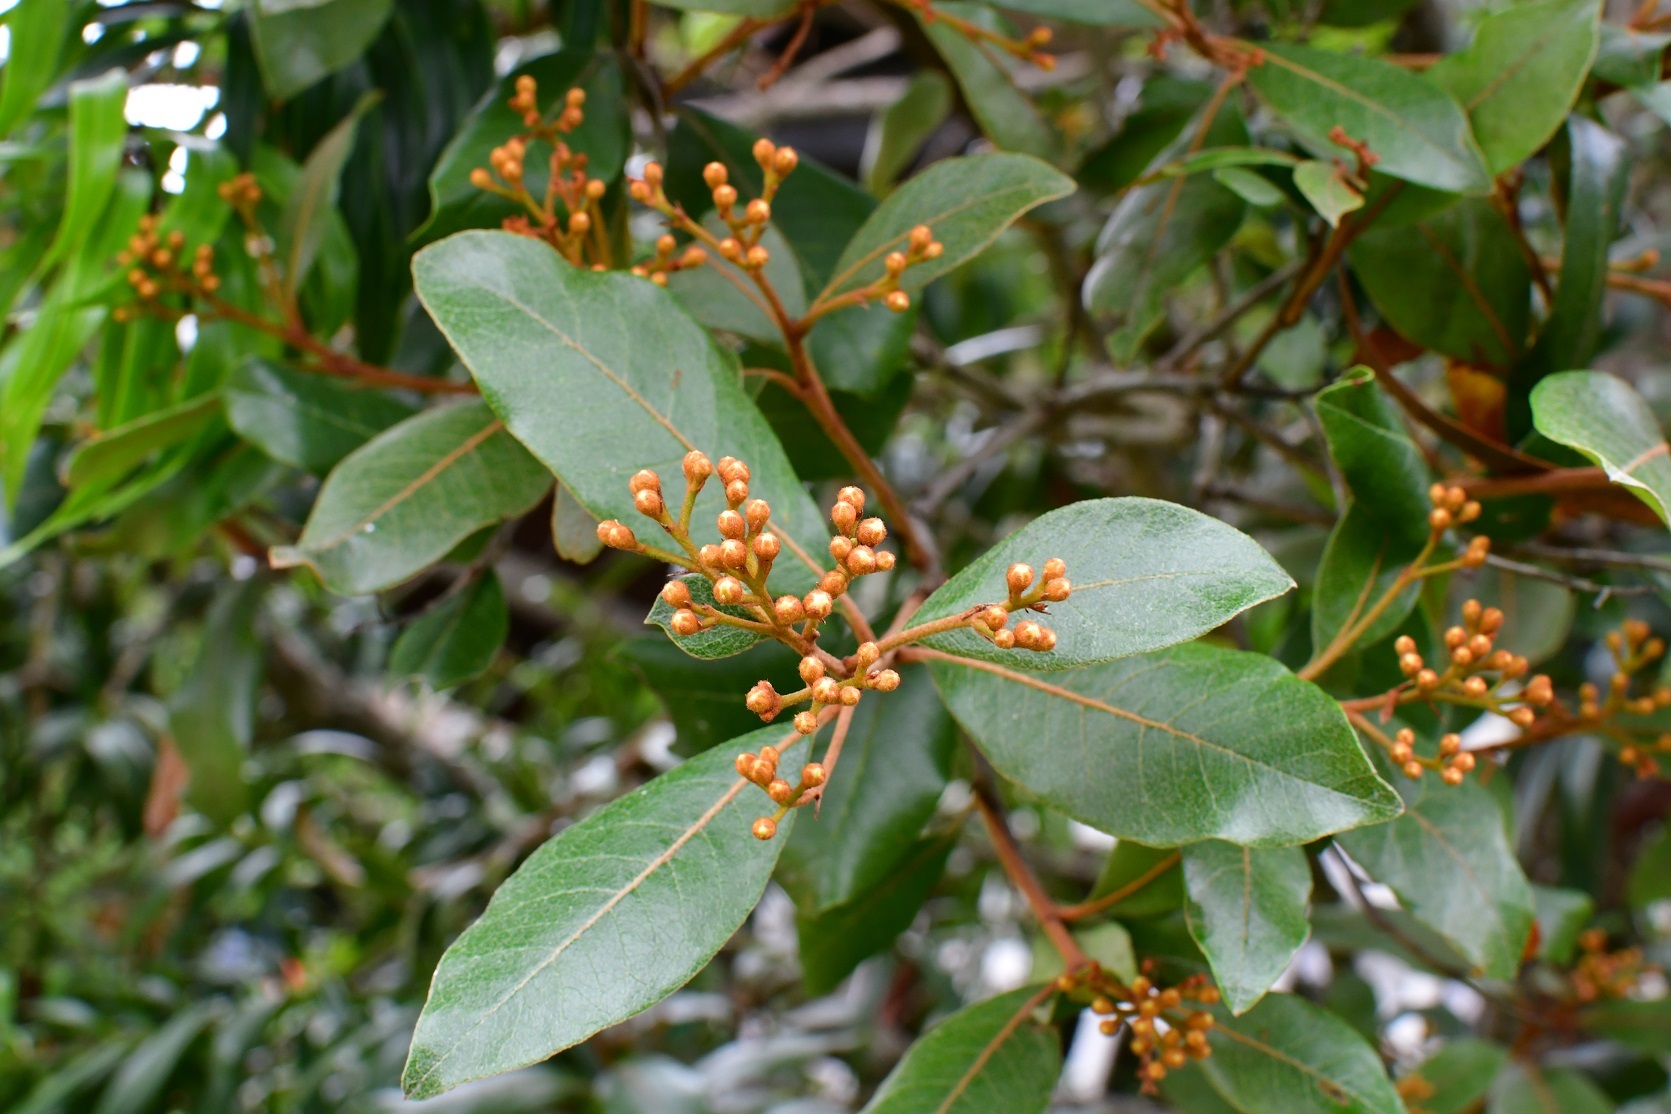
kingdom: Plantae
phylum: Tracheophyta
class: Magnoliopsida
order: Rosales
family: Rosaceae
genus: Phippsiomeles
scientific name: Phippsiomeles matudae
